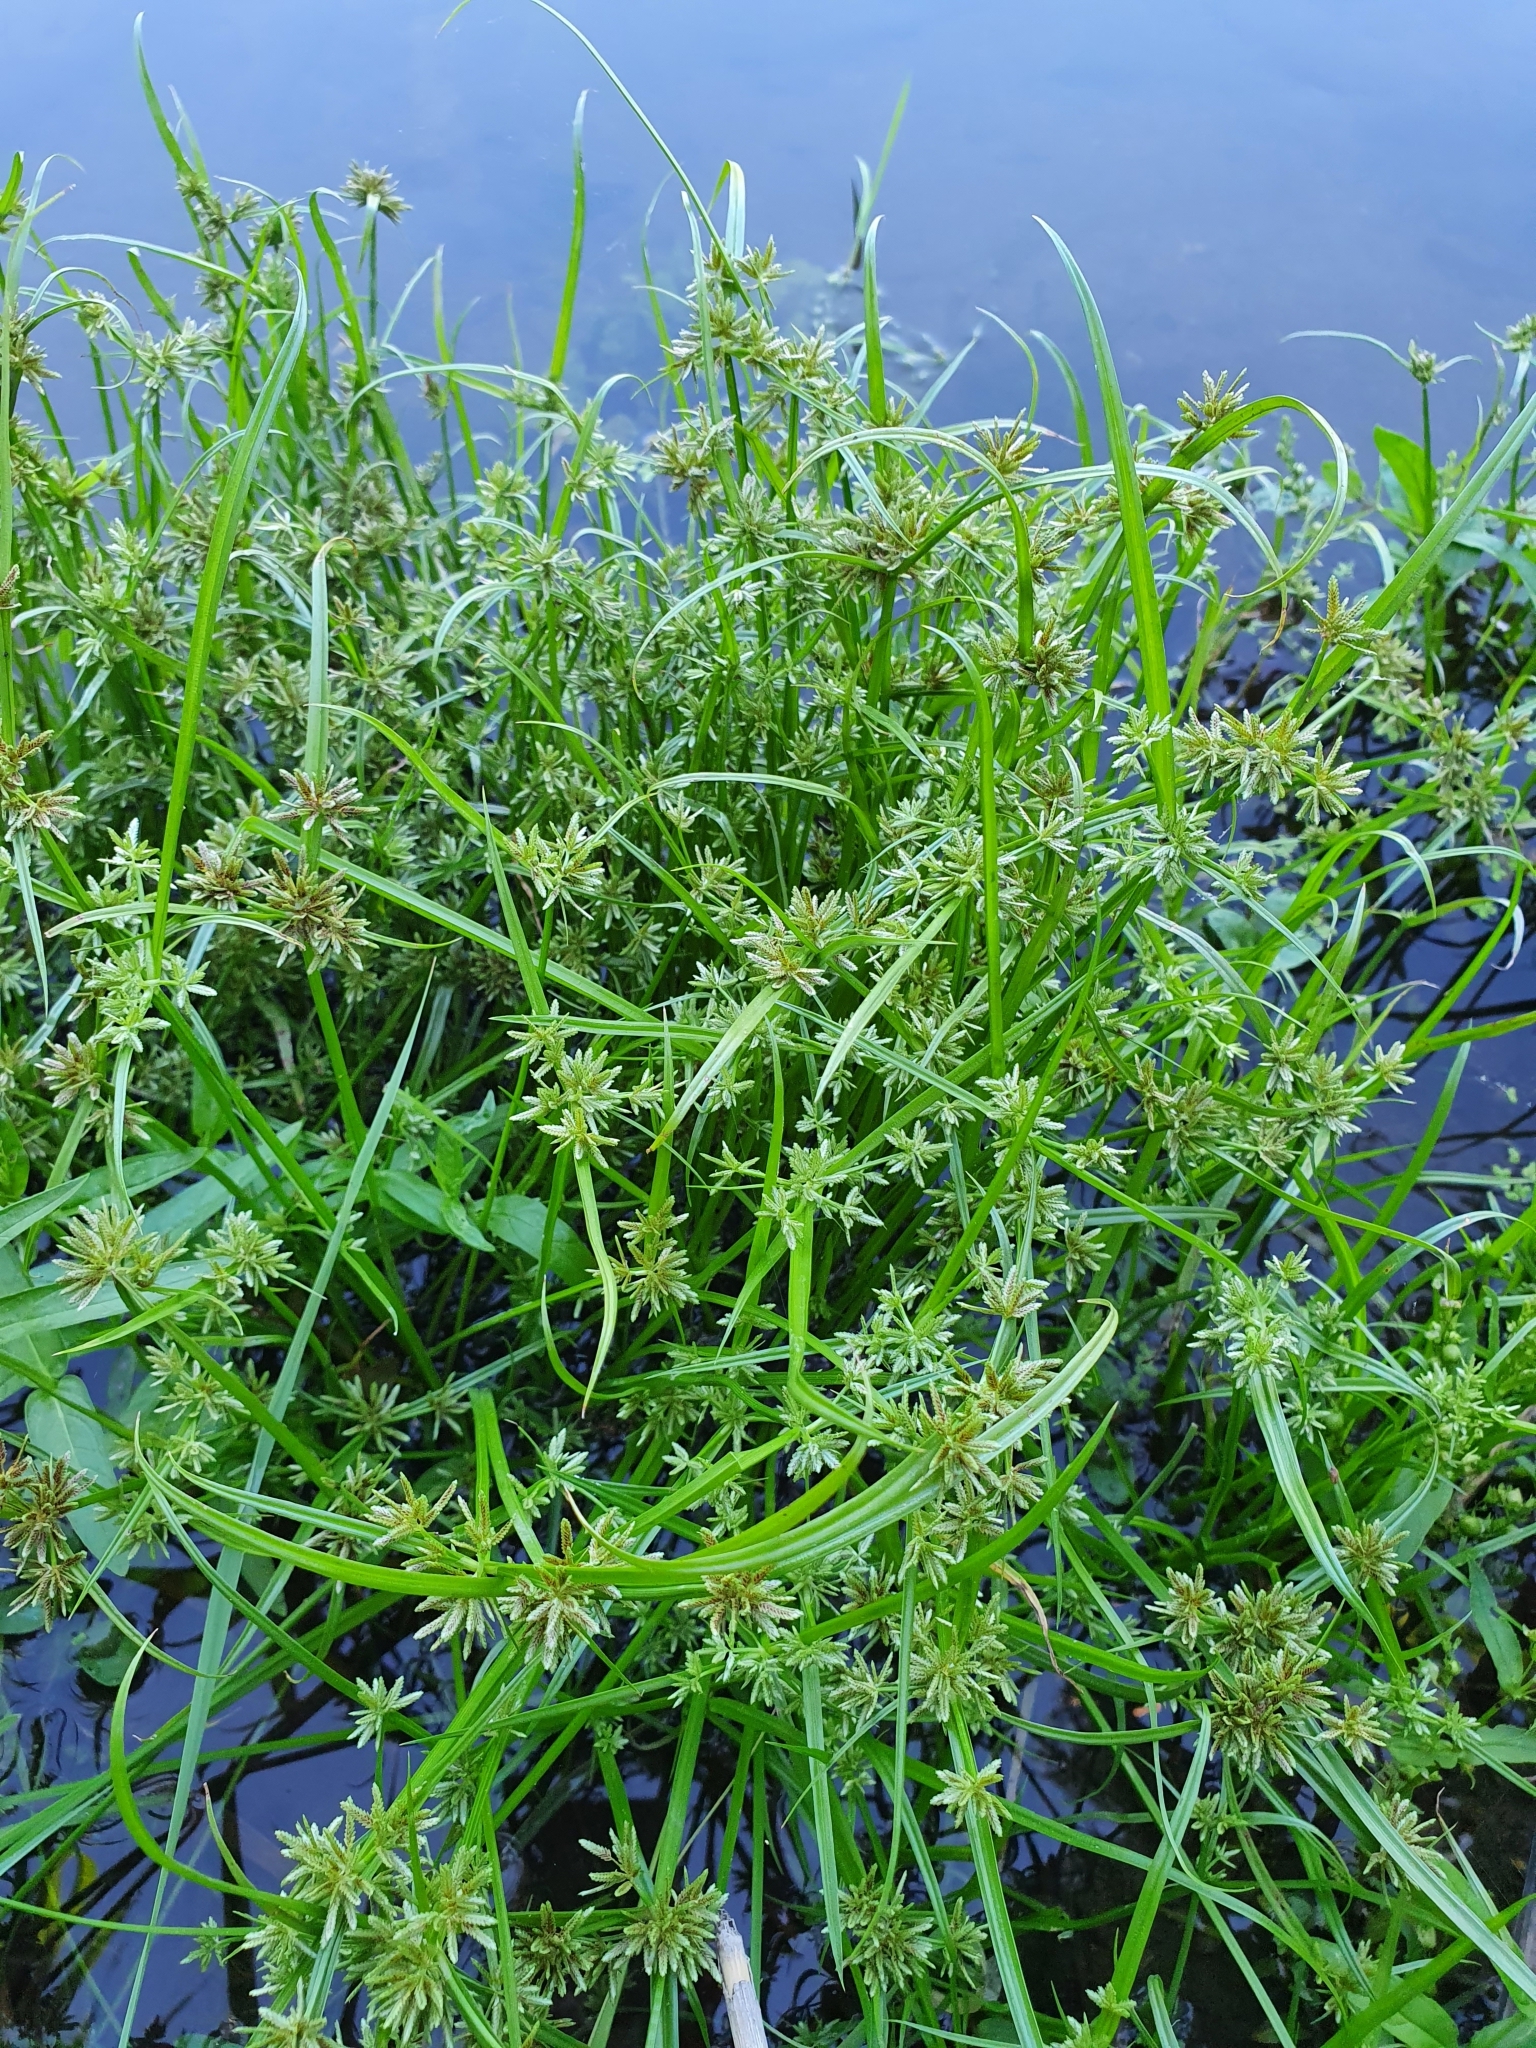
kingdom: Plantae
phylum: Tracheophyta
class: Liliopsida
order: Poales
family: Cyperaceae
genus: Cyperus
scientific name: Cyperus fuscus
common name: Brown galingale
